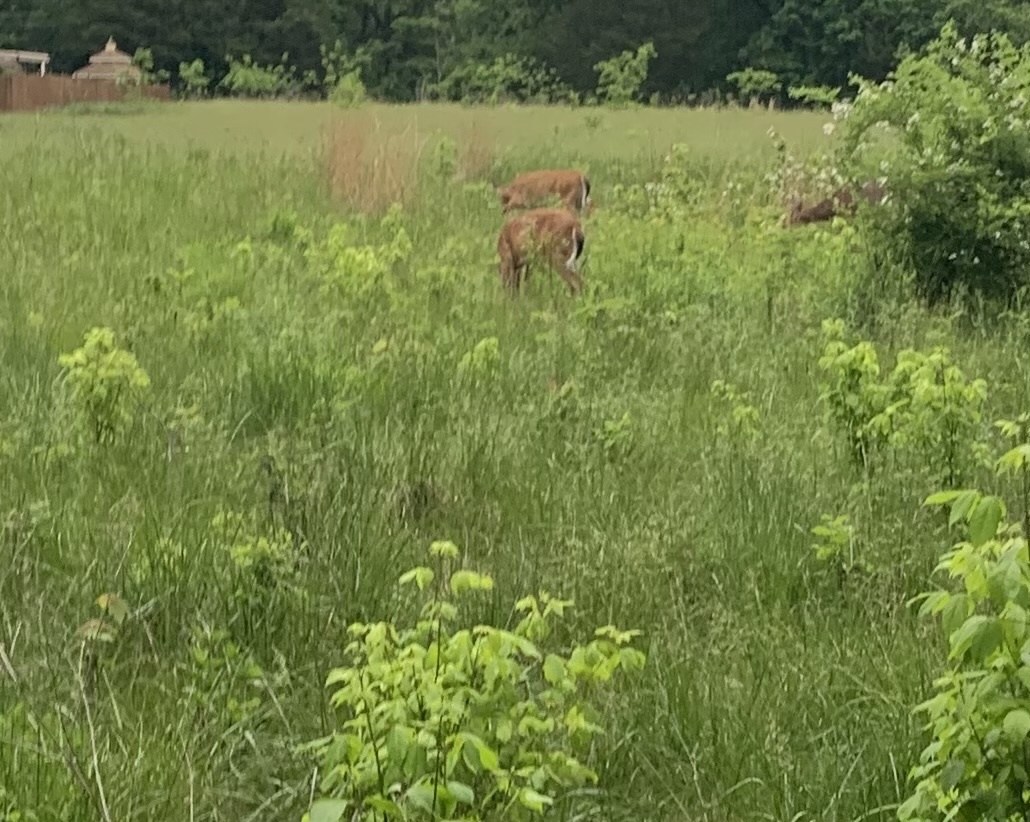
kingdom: Animalia
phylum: Chordata
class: Mammalia
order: Artiodactyla
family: Cervidae
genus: Odocoileus
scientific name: Odocoileus virginianus
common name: White-tailed deer
